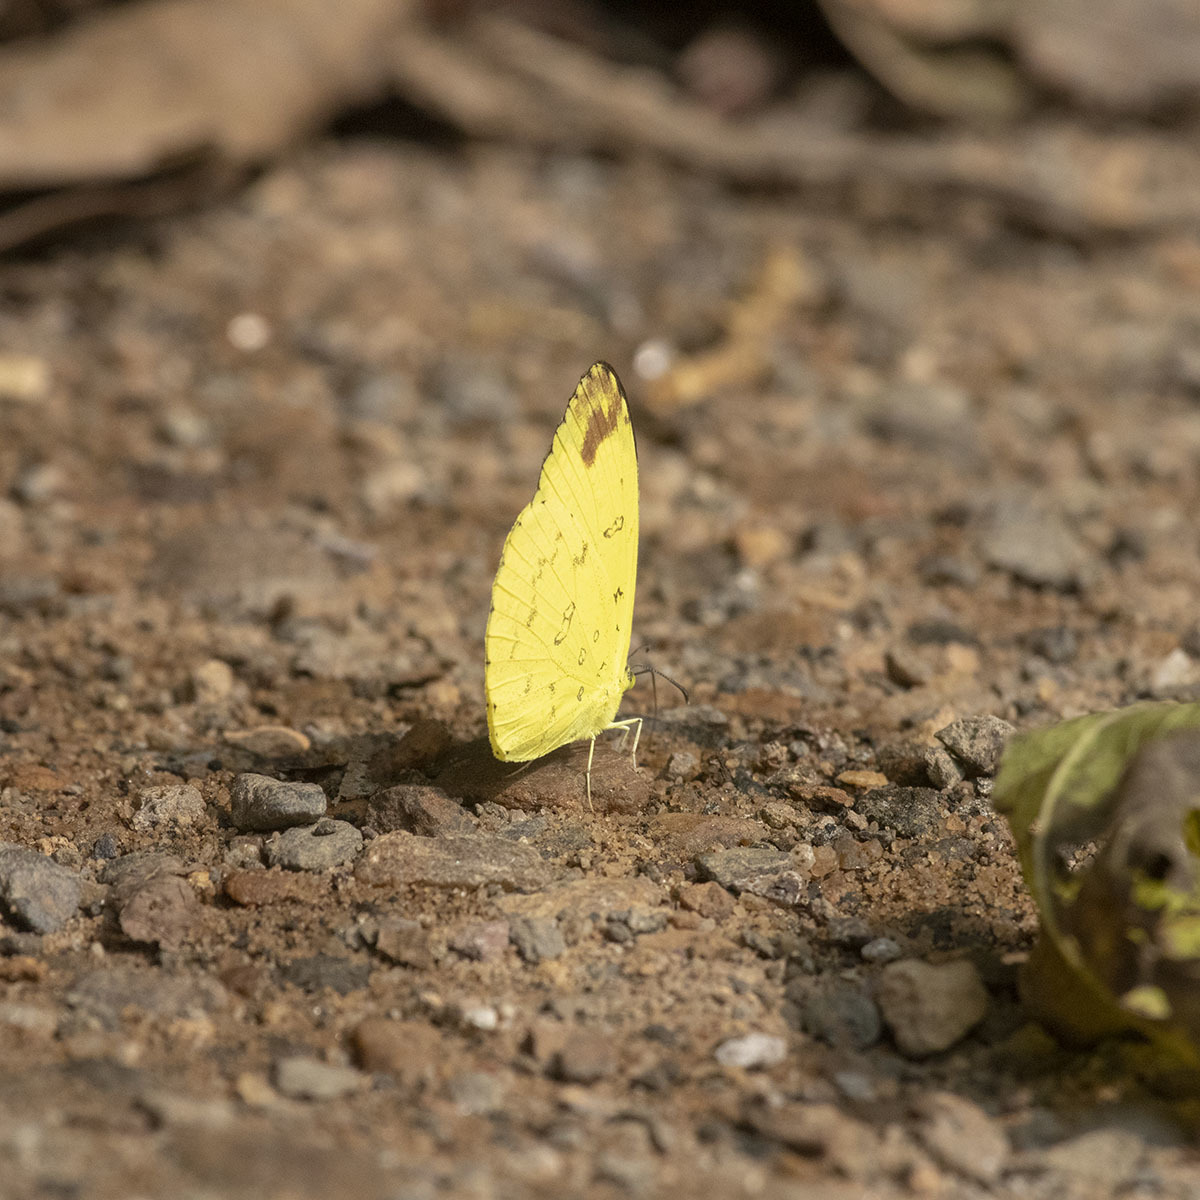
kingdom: Animalia
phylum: Arthropoda
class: Insecta
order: Lepidoptera
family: Pieridae
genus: Eurema
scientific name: Eurema blanda
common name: Three-spot grass yellow
